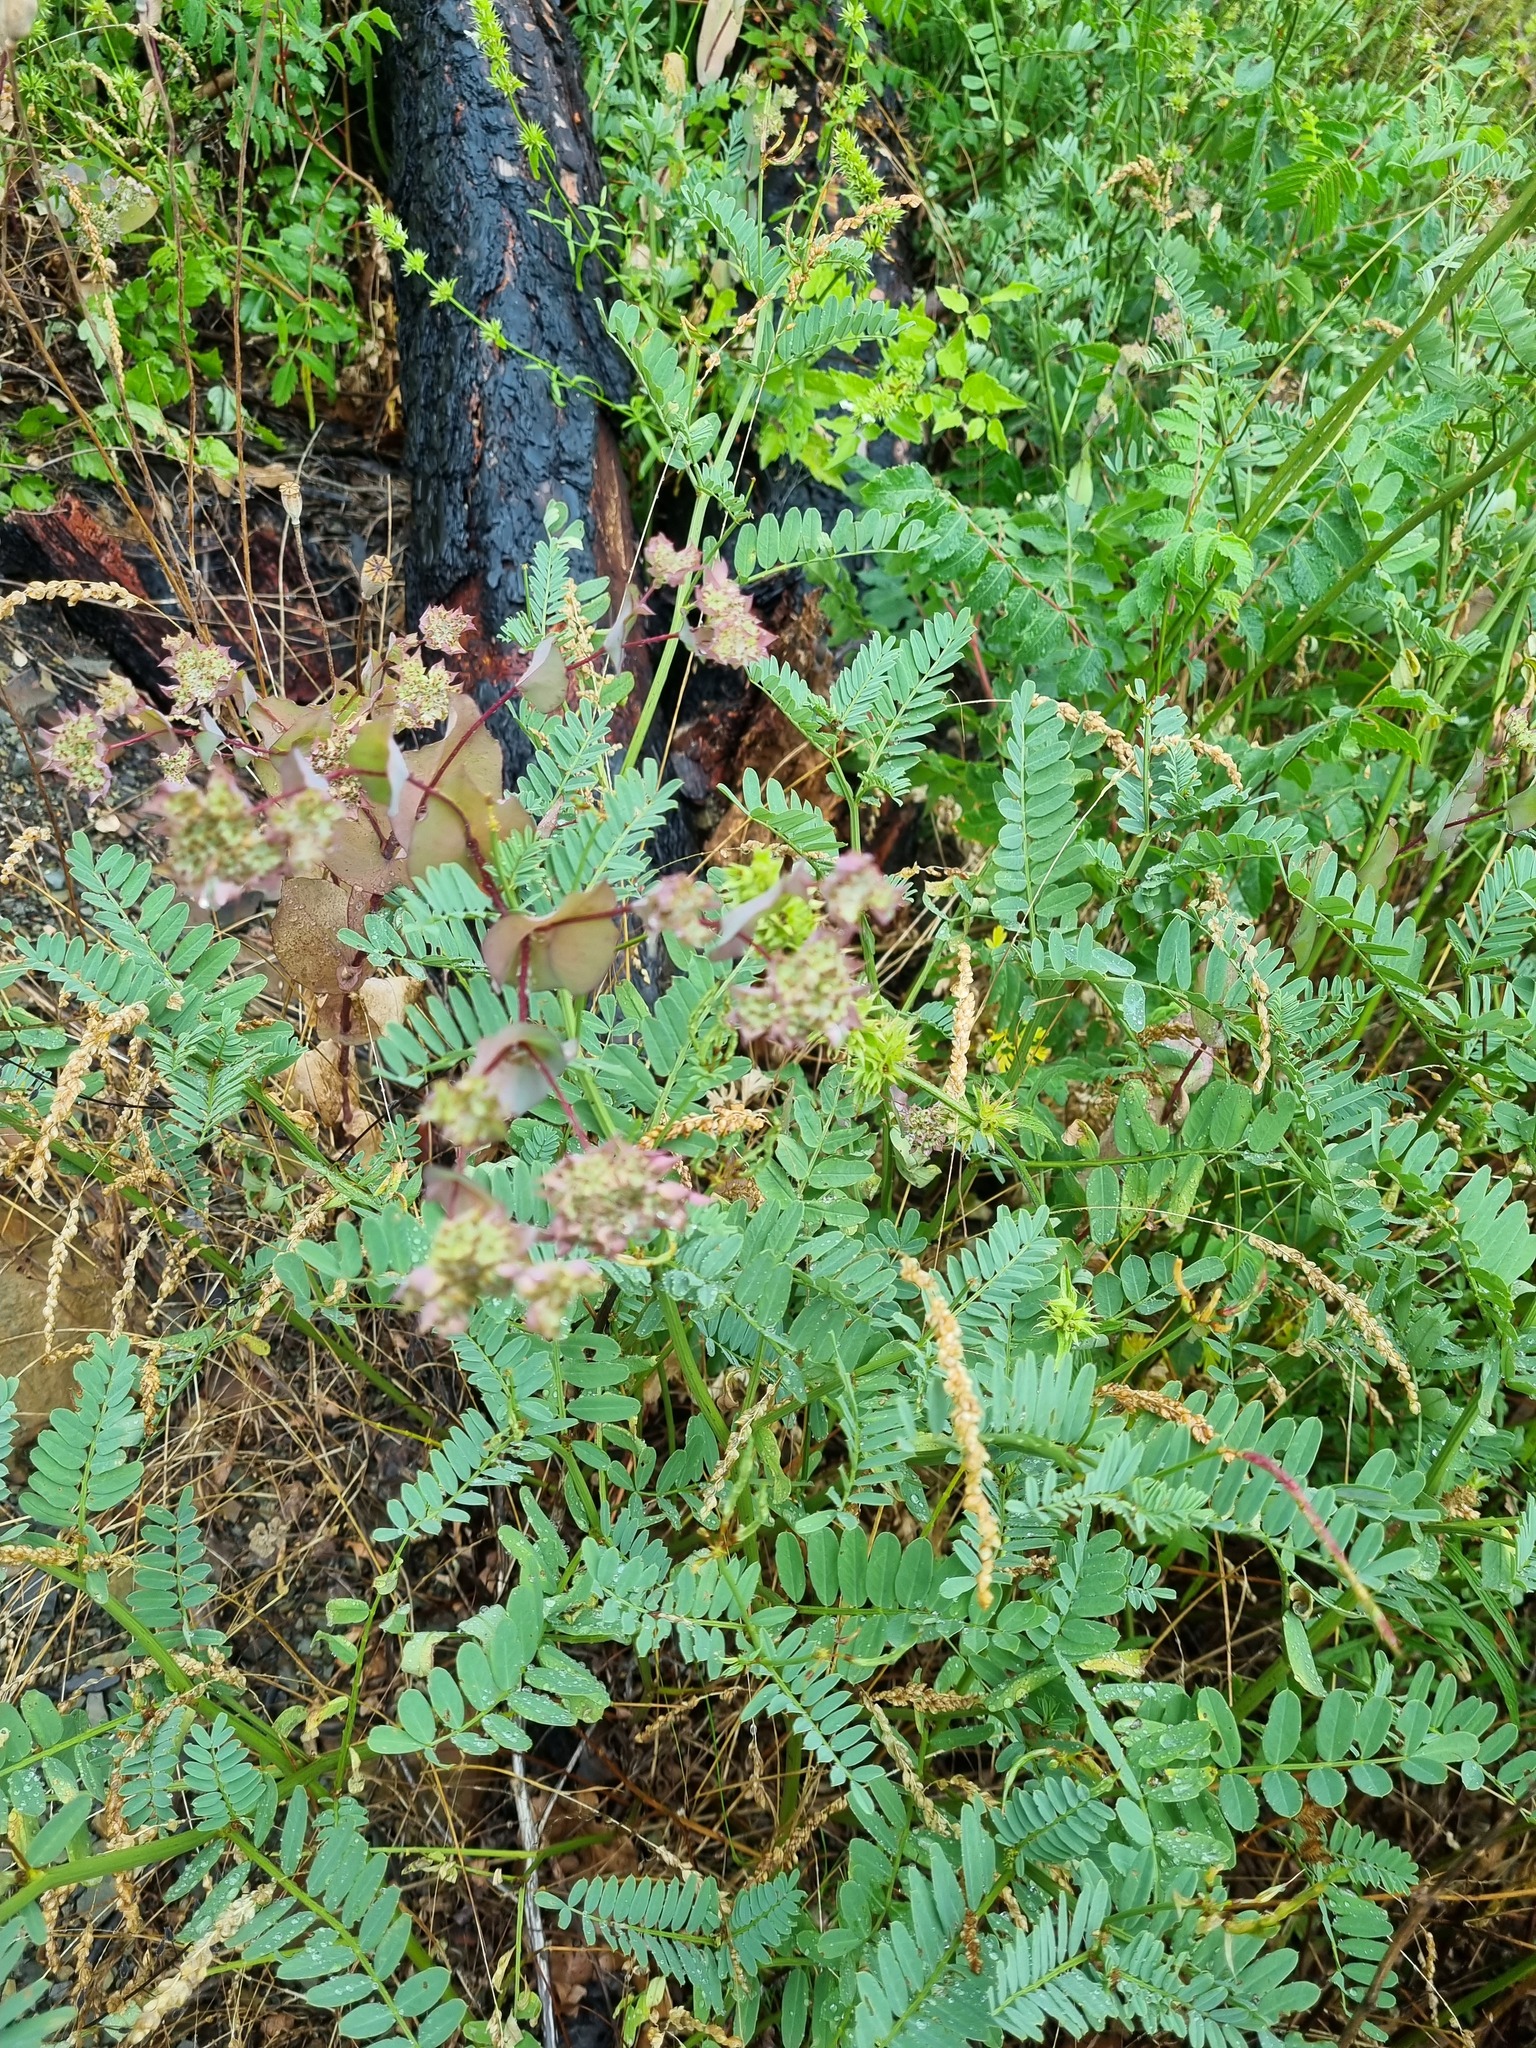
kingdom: Plantae
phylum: Tracheophyta
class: Magnoliopsida
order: Fabales
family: Fabaceae
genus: Coronilla
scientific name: Coronilla varia
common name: Crownvetch
